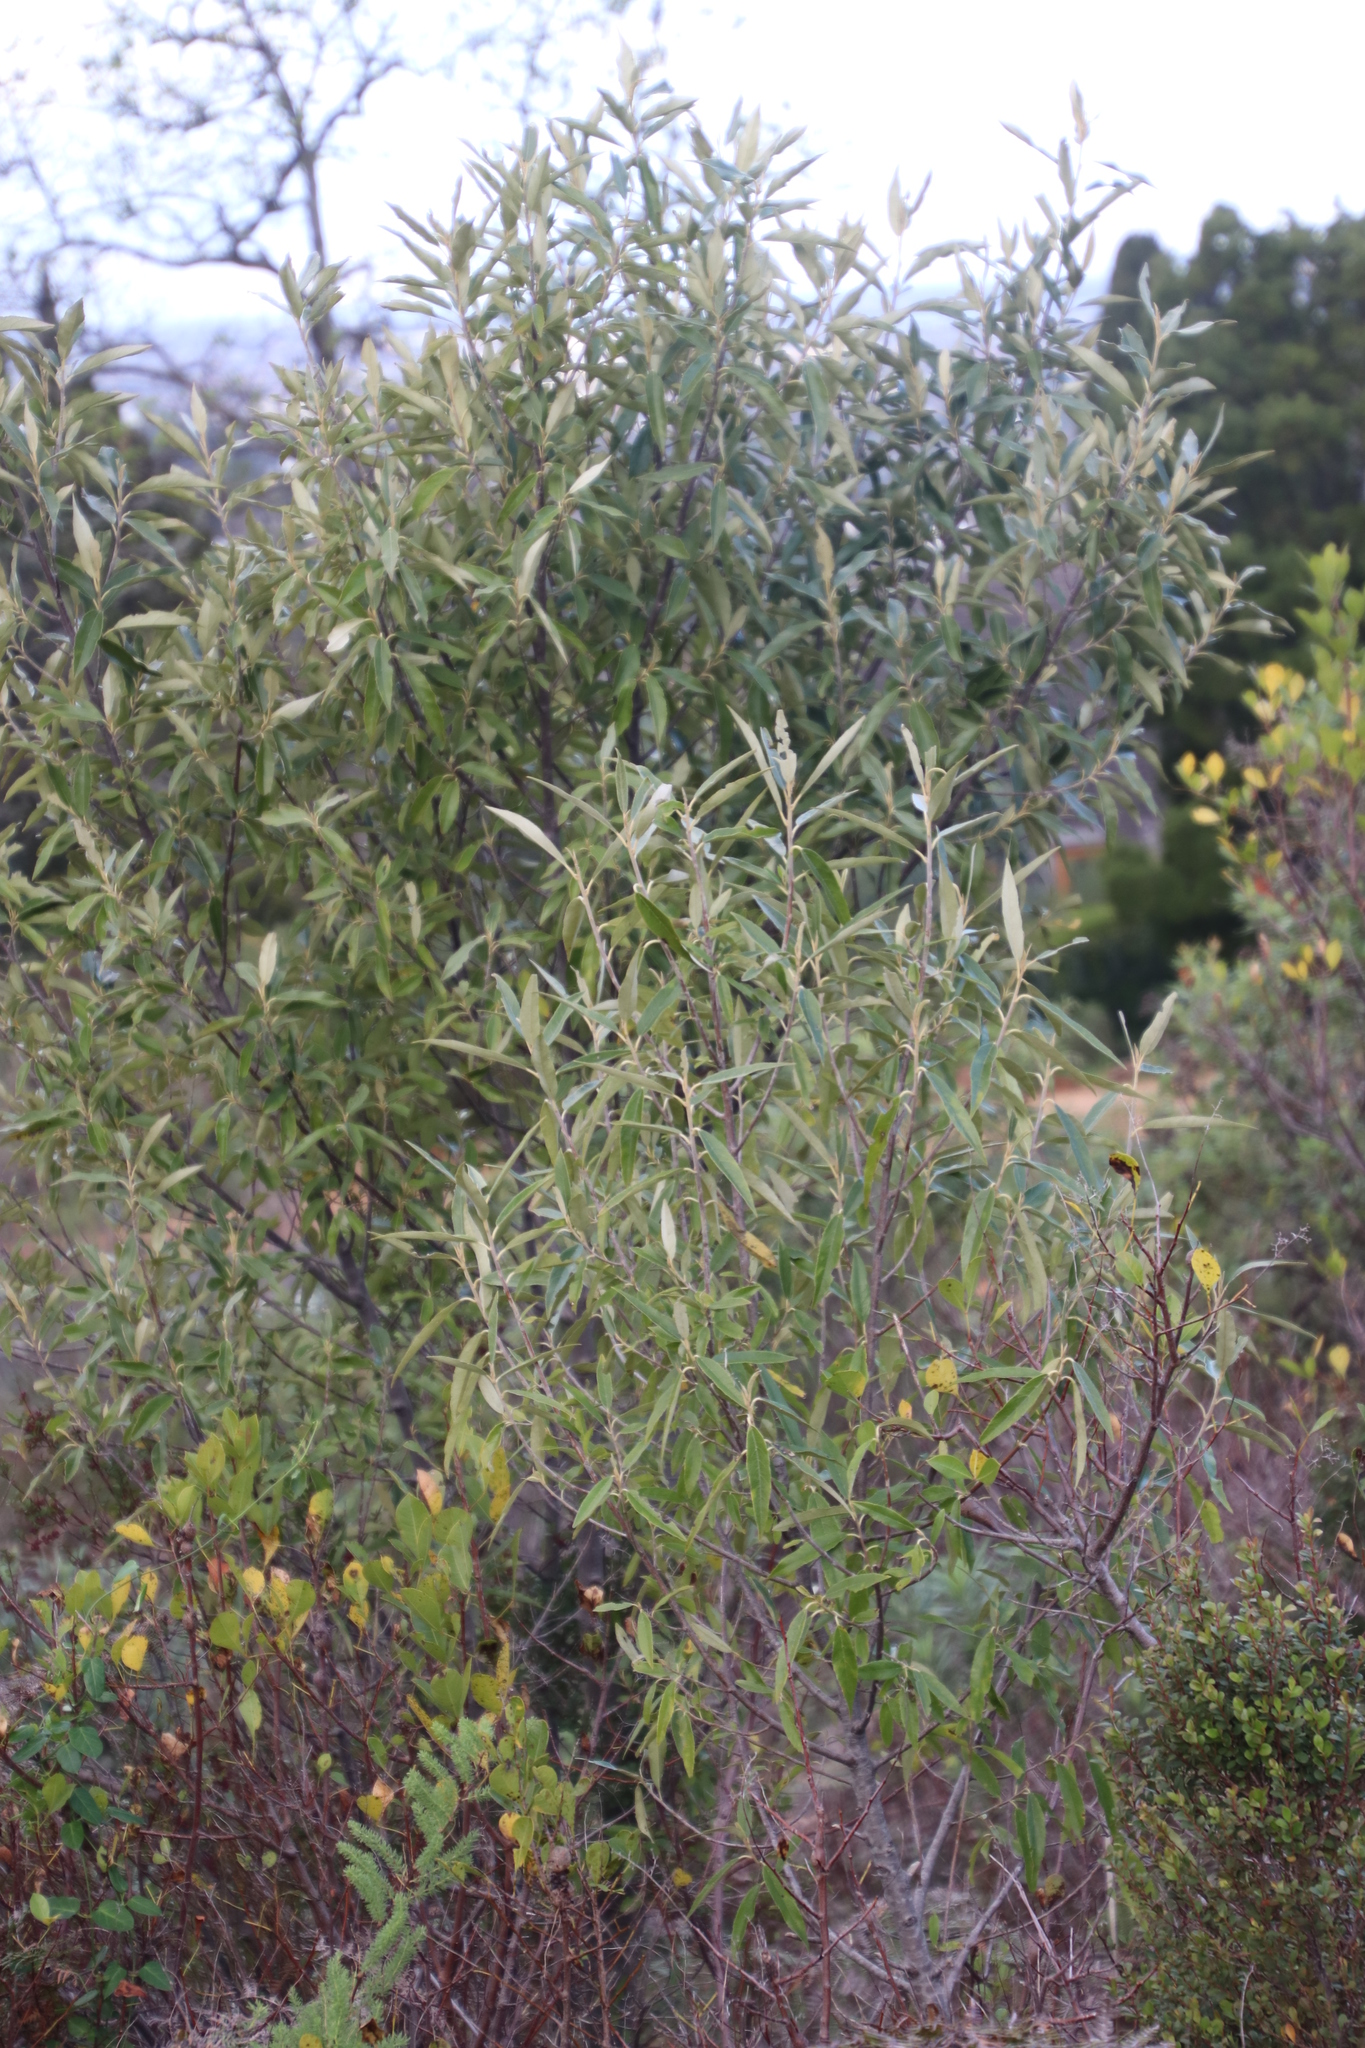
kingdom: Plantae
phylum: Tracheophyta
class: Magnoliopsida
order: Malpighiales
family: Achariaceae
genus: Kiggelaria
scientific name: Kiggelaria africana
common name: Wild peach
